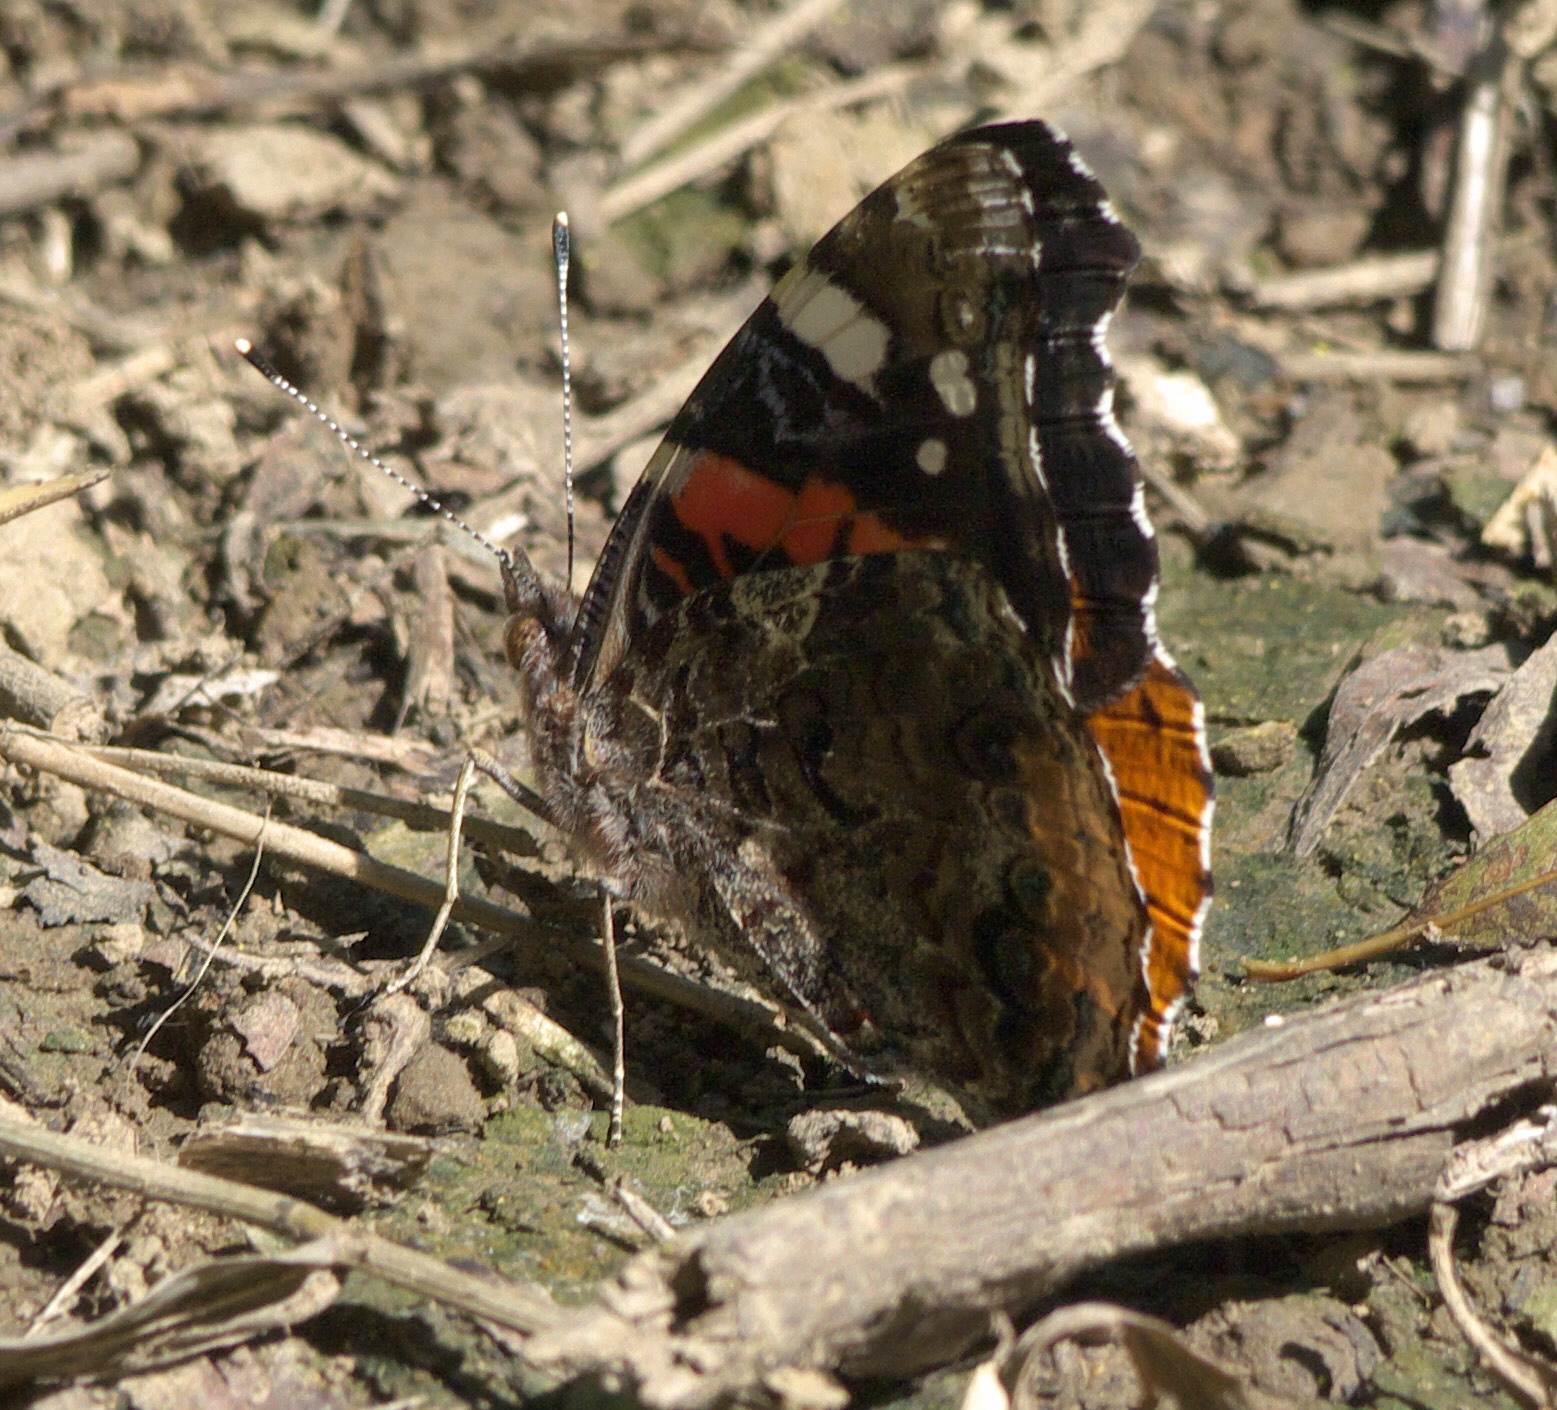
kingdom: Animalia
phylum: Arthropoda
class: Insecta
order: Lepidoptera
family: Nymphalidae
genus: Vanessa
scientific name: Vanessa atalanta
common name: Red admiral
